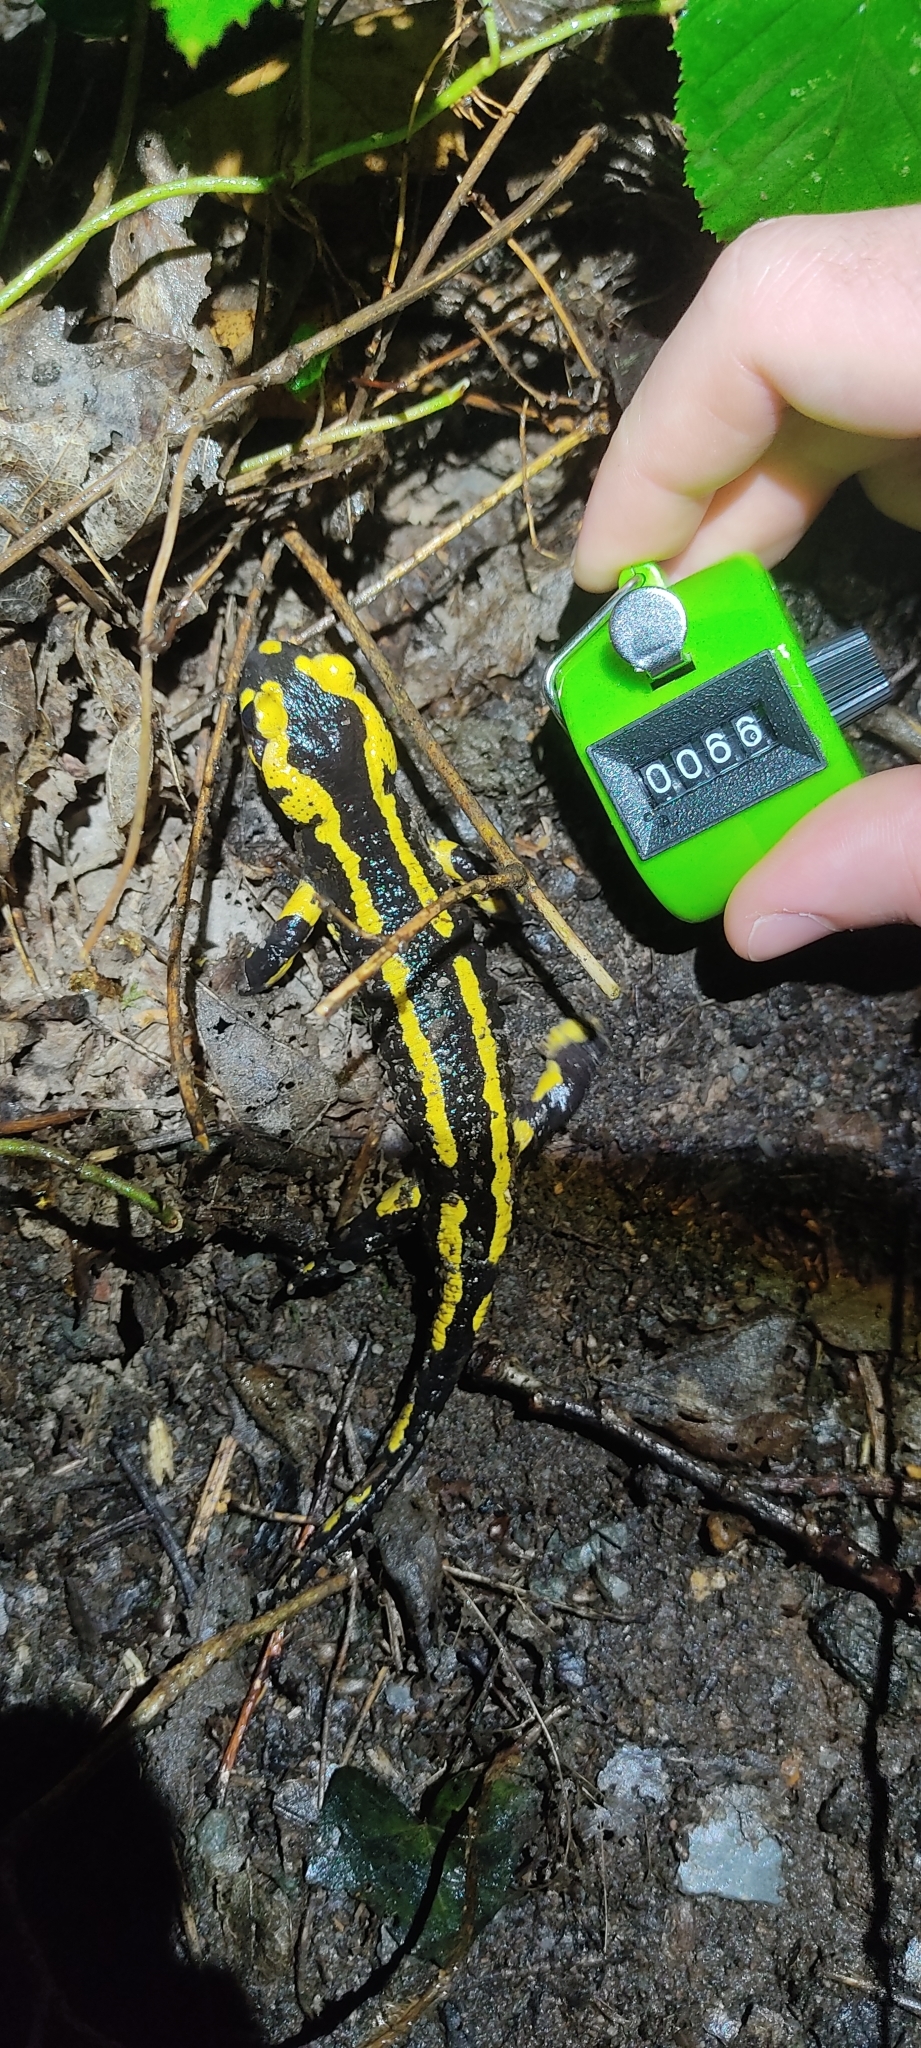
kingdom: Animalia
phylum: Chordata
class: Amphibia
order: Caudata
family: Salamandridae
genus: Salamandra
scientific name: Salamandra salamandra
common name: Fire salamander
